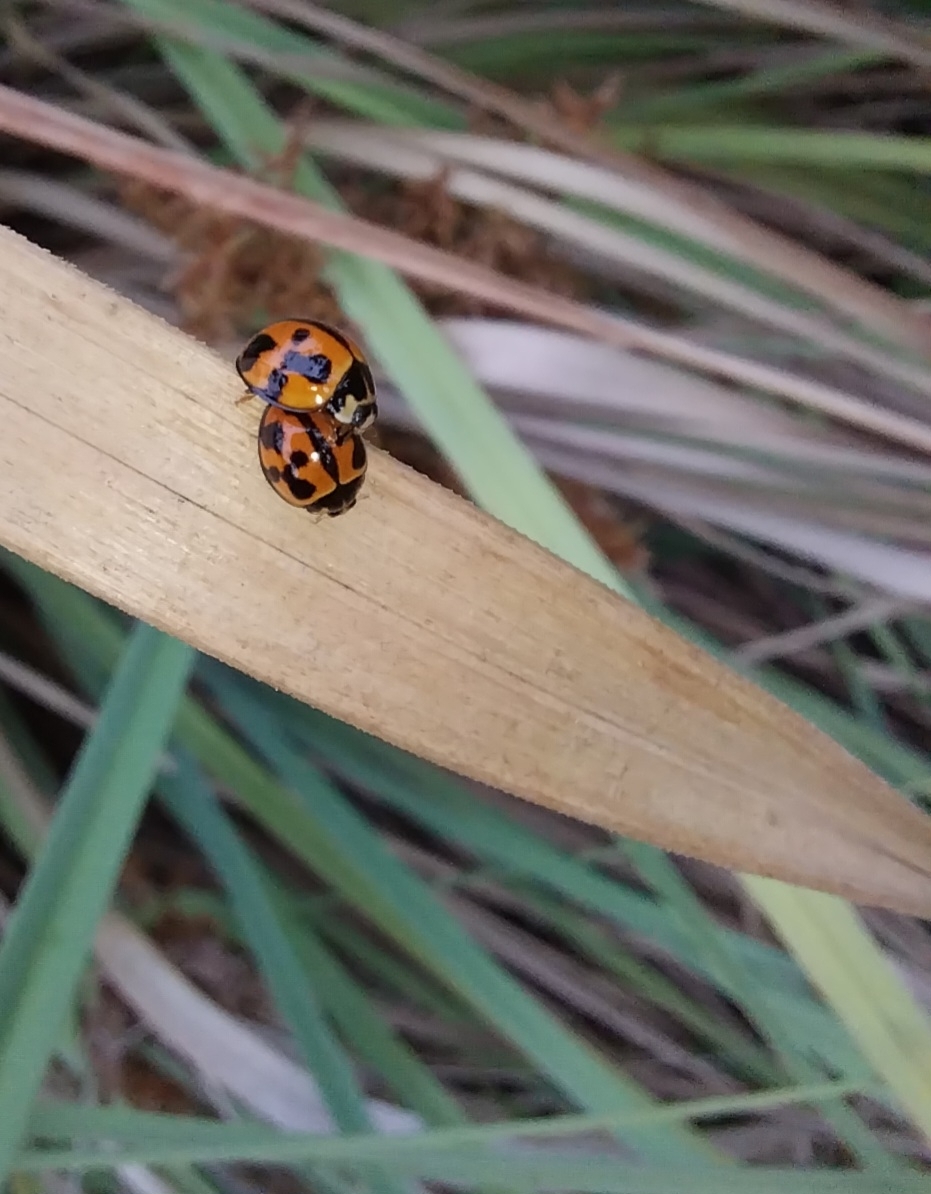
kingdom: Animalia
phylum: Arthropoda
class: Insecta
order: Coleoptera
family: Coccinellidae
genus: Coelophora
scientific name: Coelophora inaequalis
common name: Common australian lady beetle
